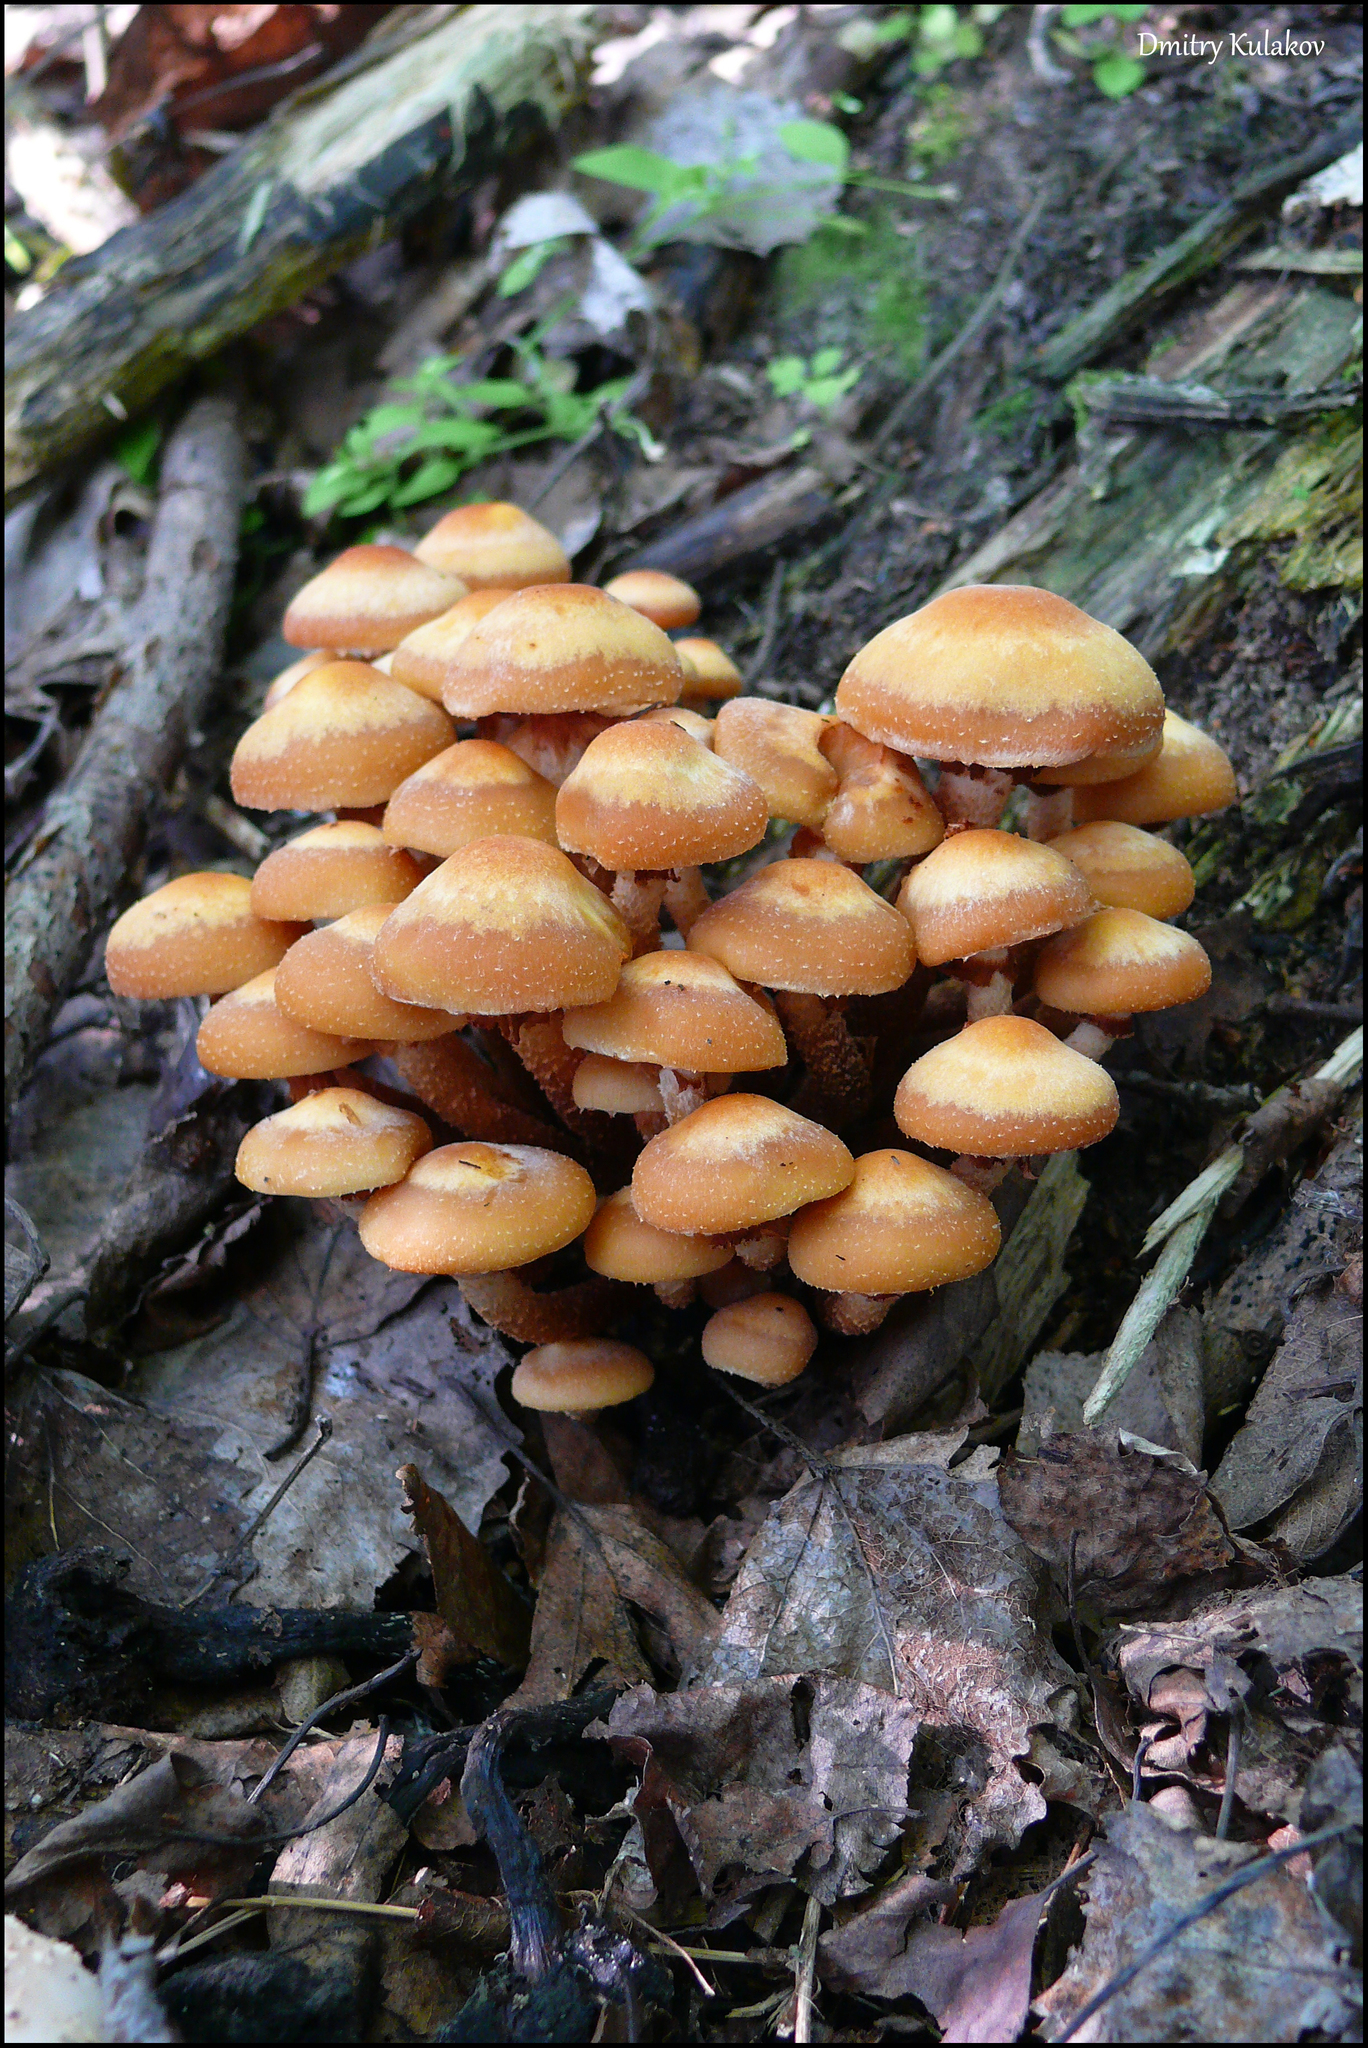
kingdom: Fungi
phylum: Basidiomycota
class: Agaricomycetes
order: Agaricales
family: Strophariaceae
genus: Kuehneromyces
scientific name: Kuehneromyces mutabilis
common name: Sheathed woodtuft
